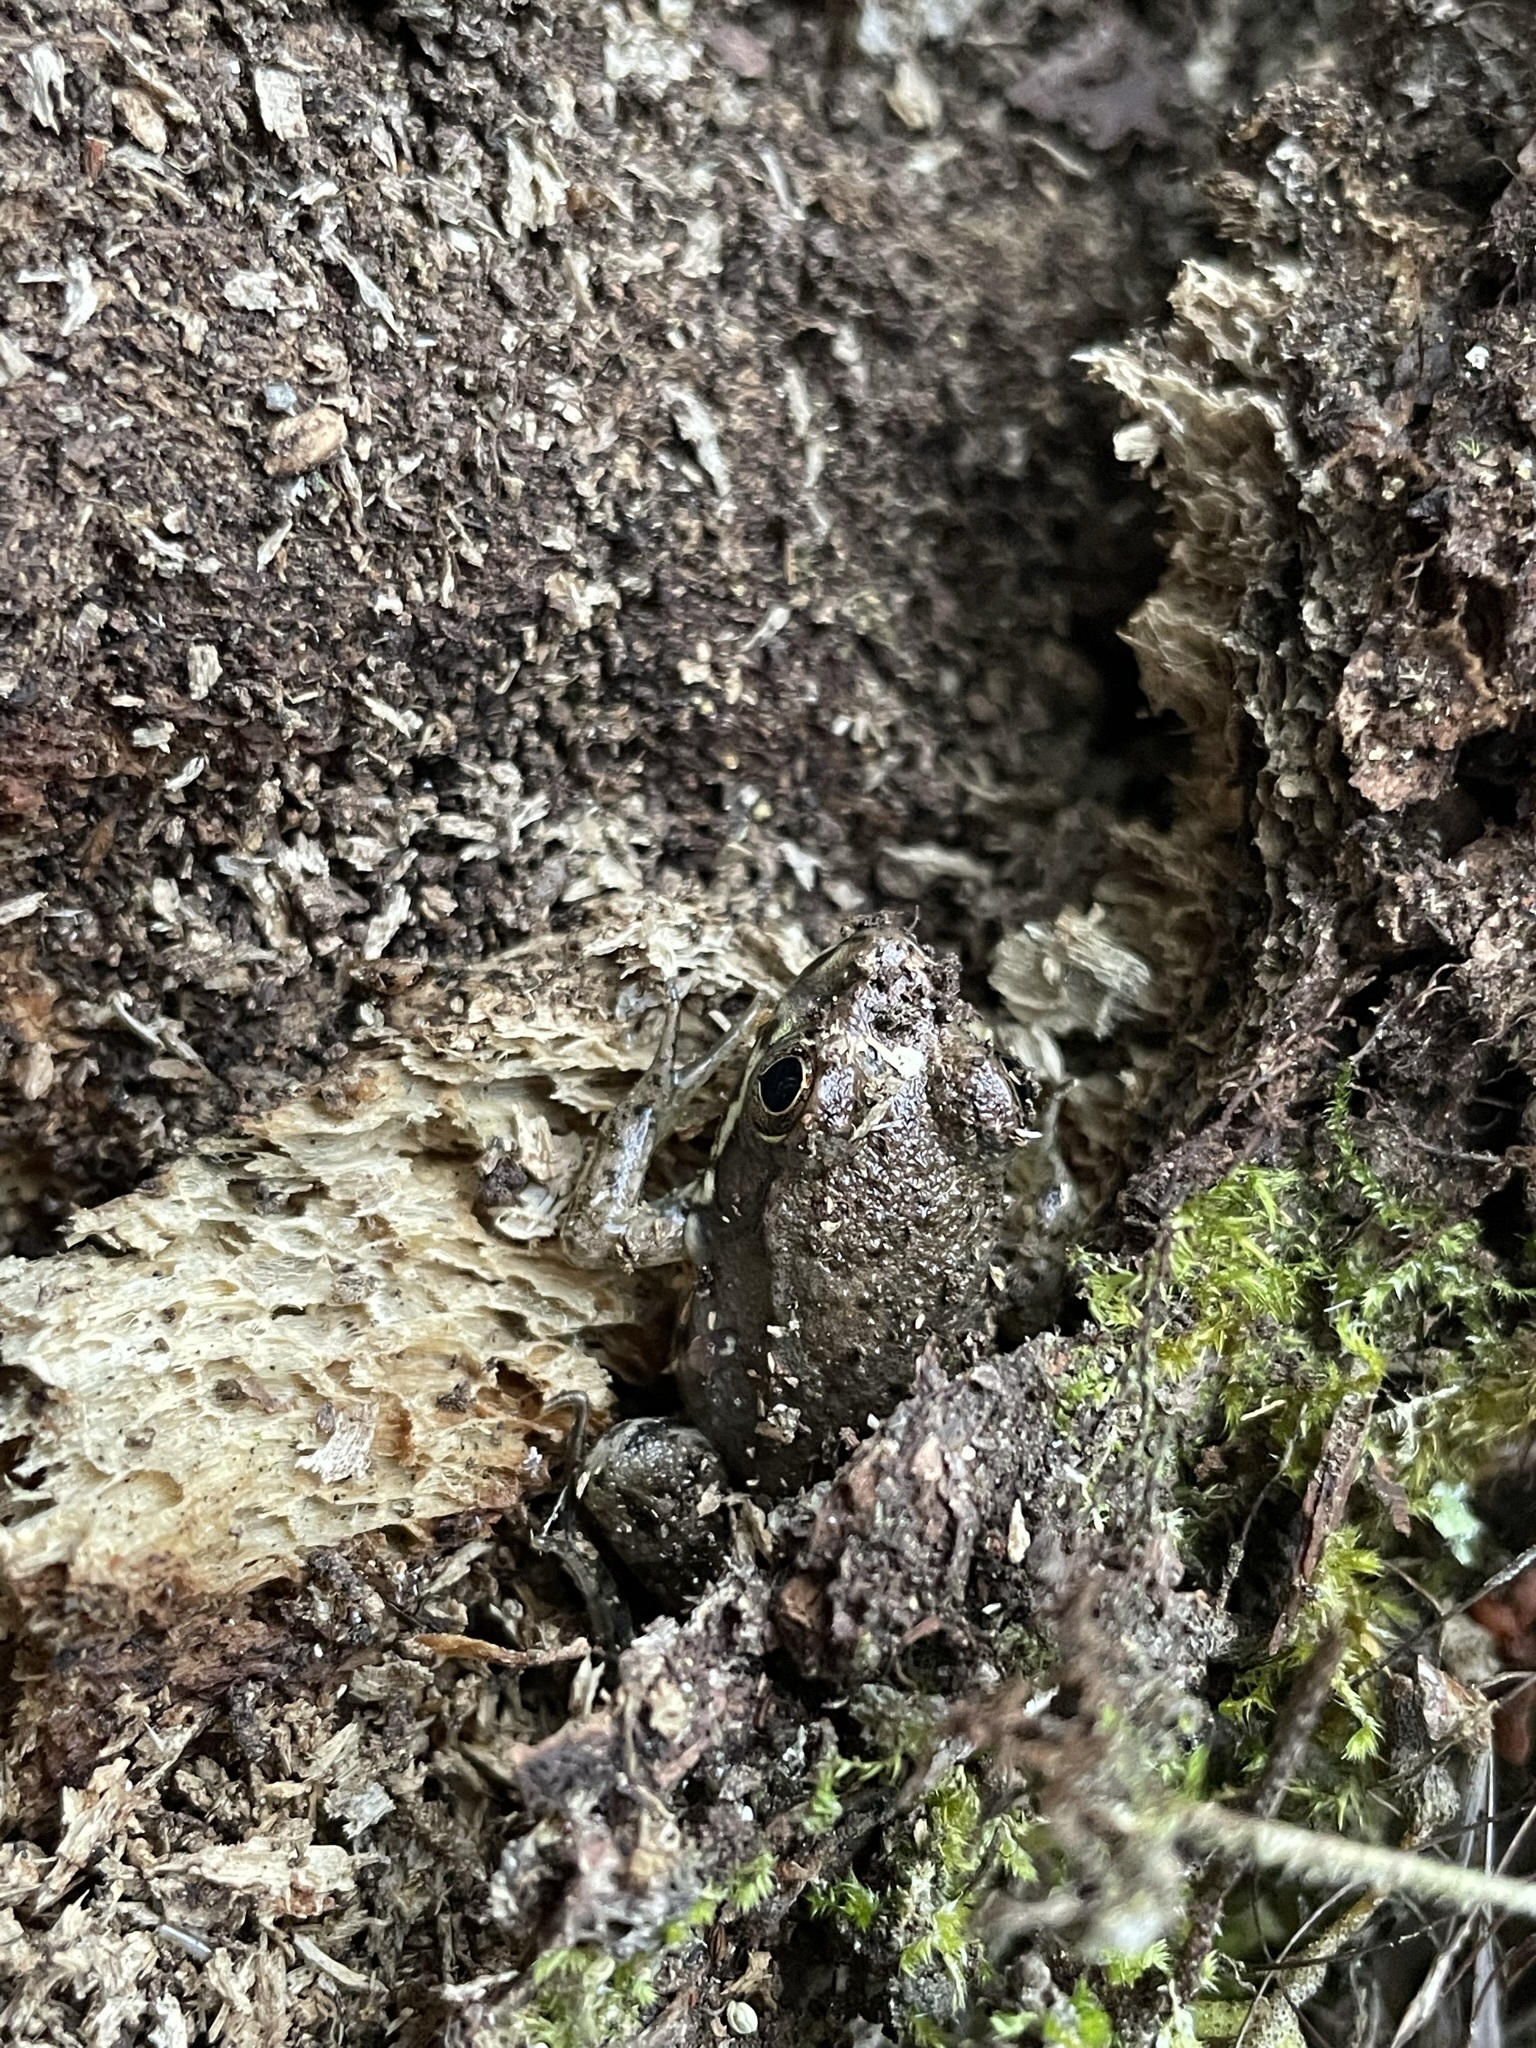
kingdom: Animalia
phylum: Chordata
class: Amphibia
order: Anura
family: Ranidae
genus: Lithobates
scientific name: Lithobates clamitans
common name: Green frog
